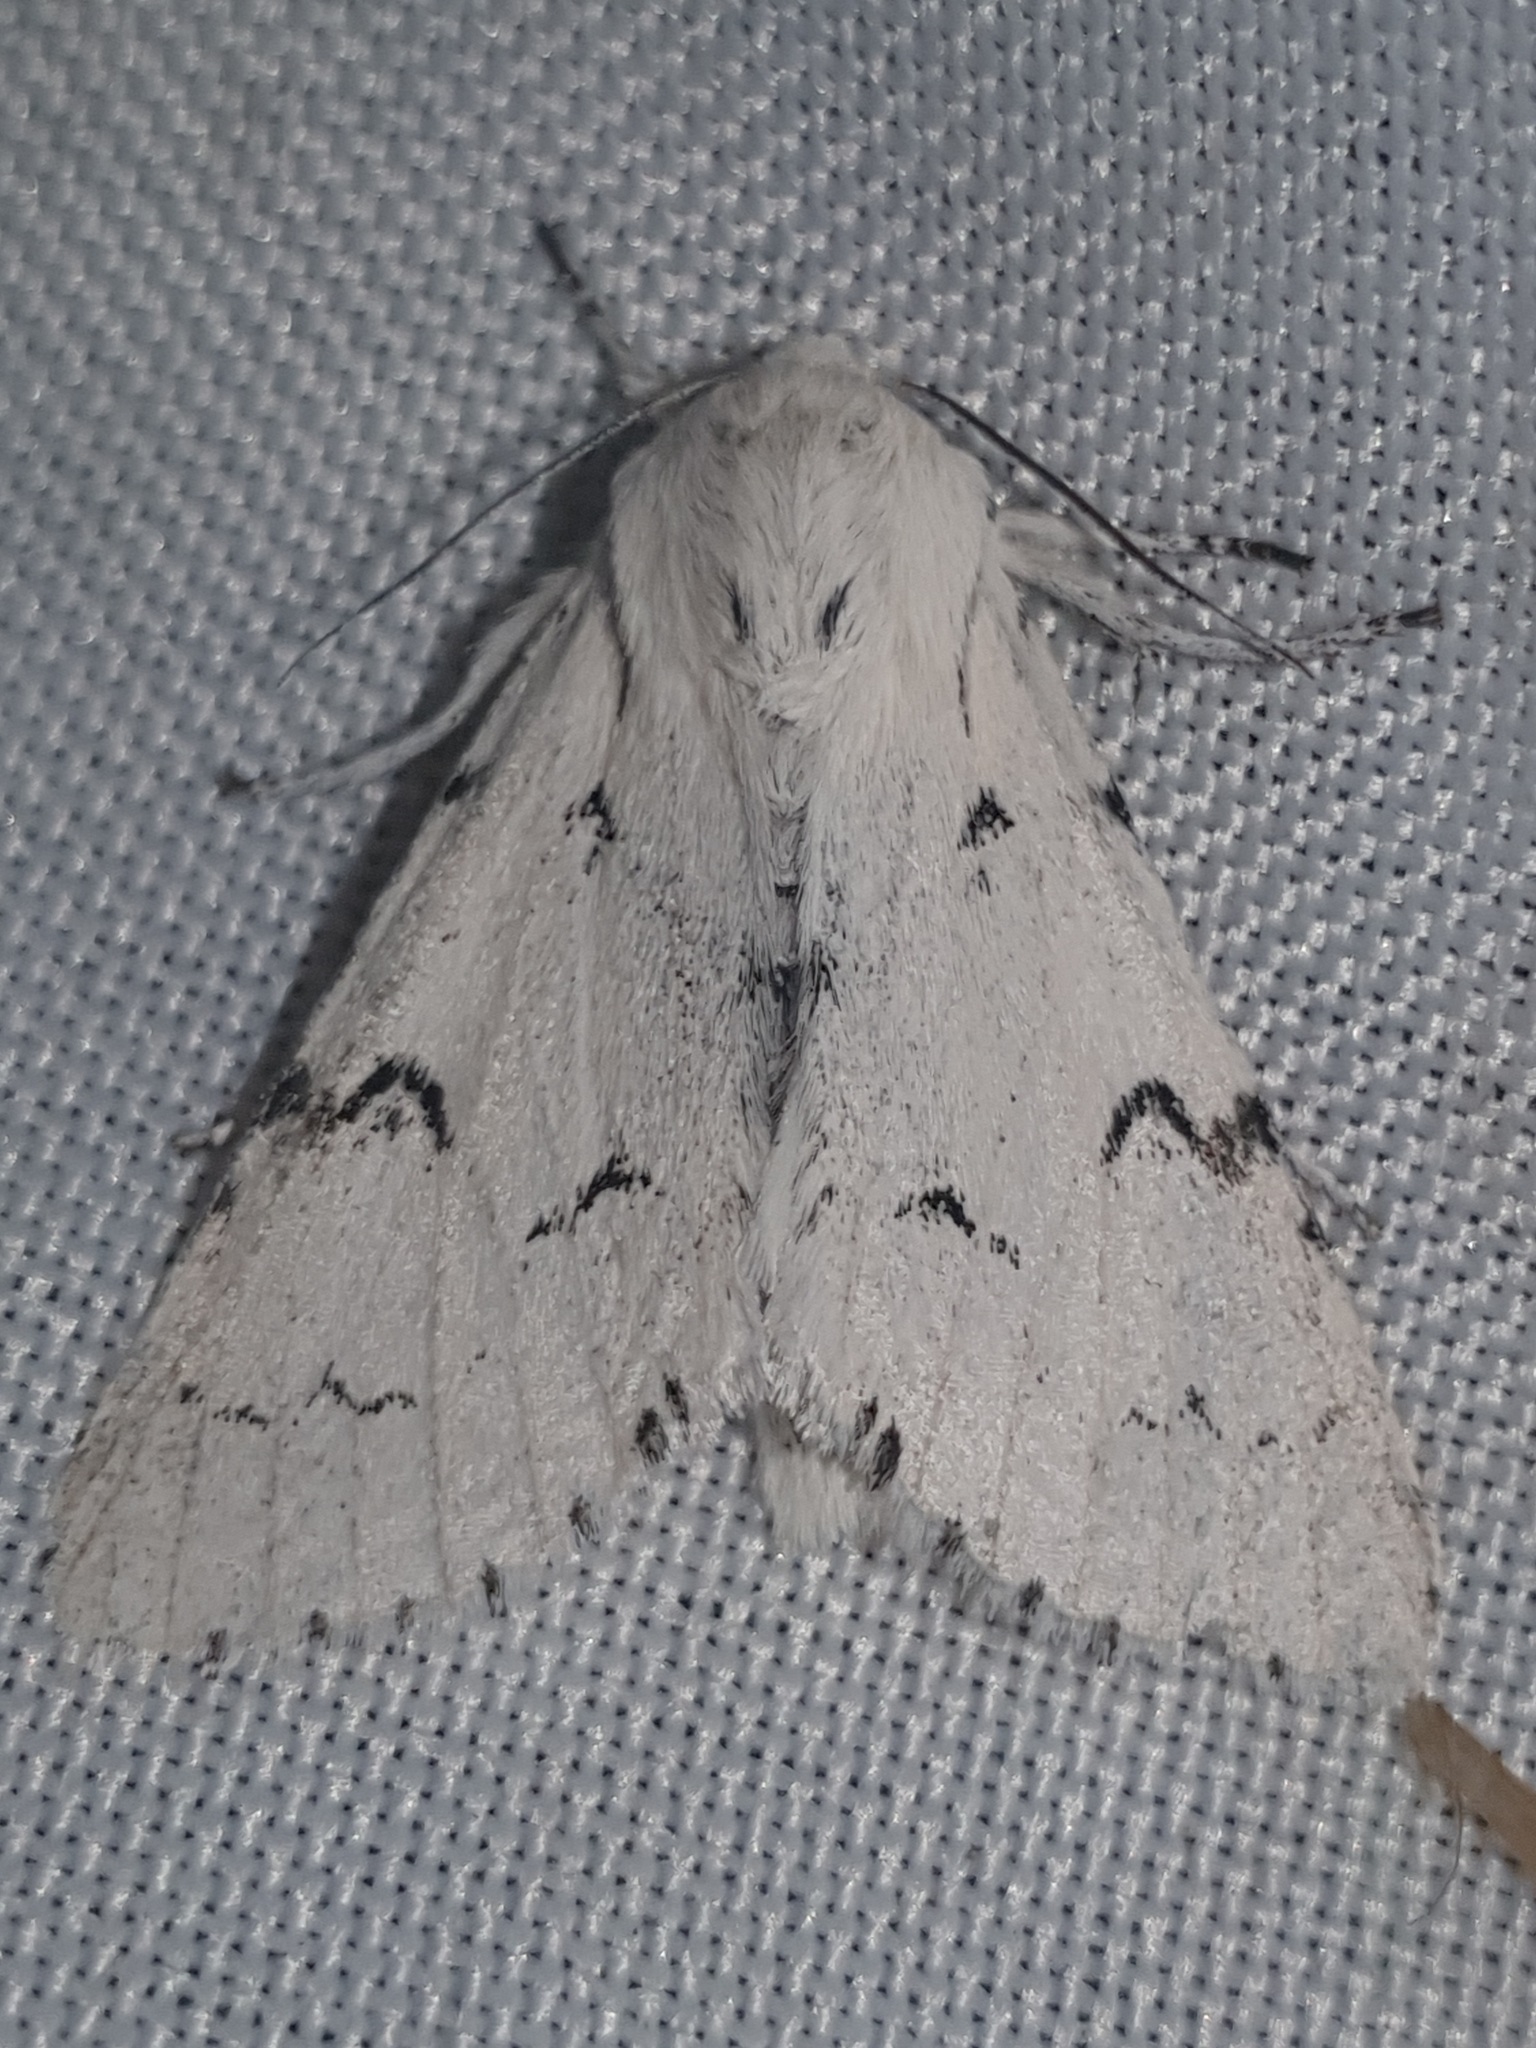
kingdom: Animalia
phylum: Arthropoda
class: Insecta
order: Lepidoptera
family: Noctuidae
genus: Acronicta
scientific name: Acronicta leporina
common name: Miller
